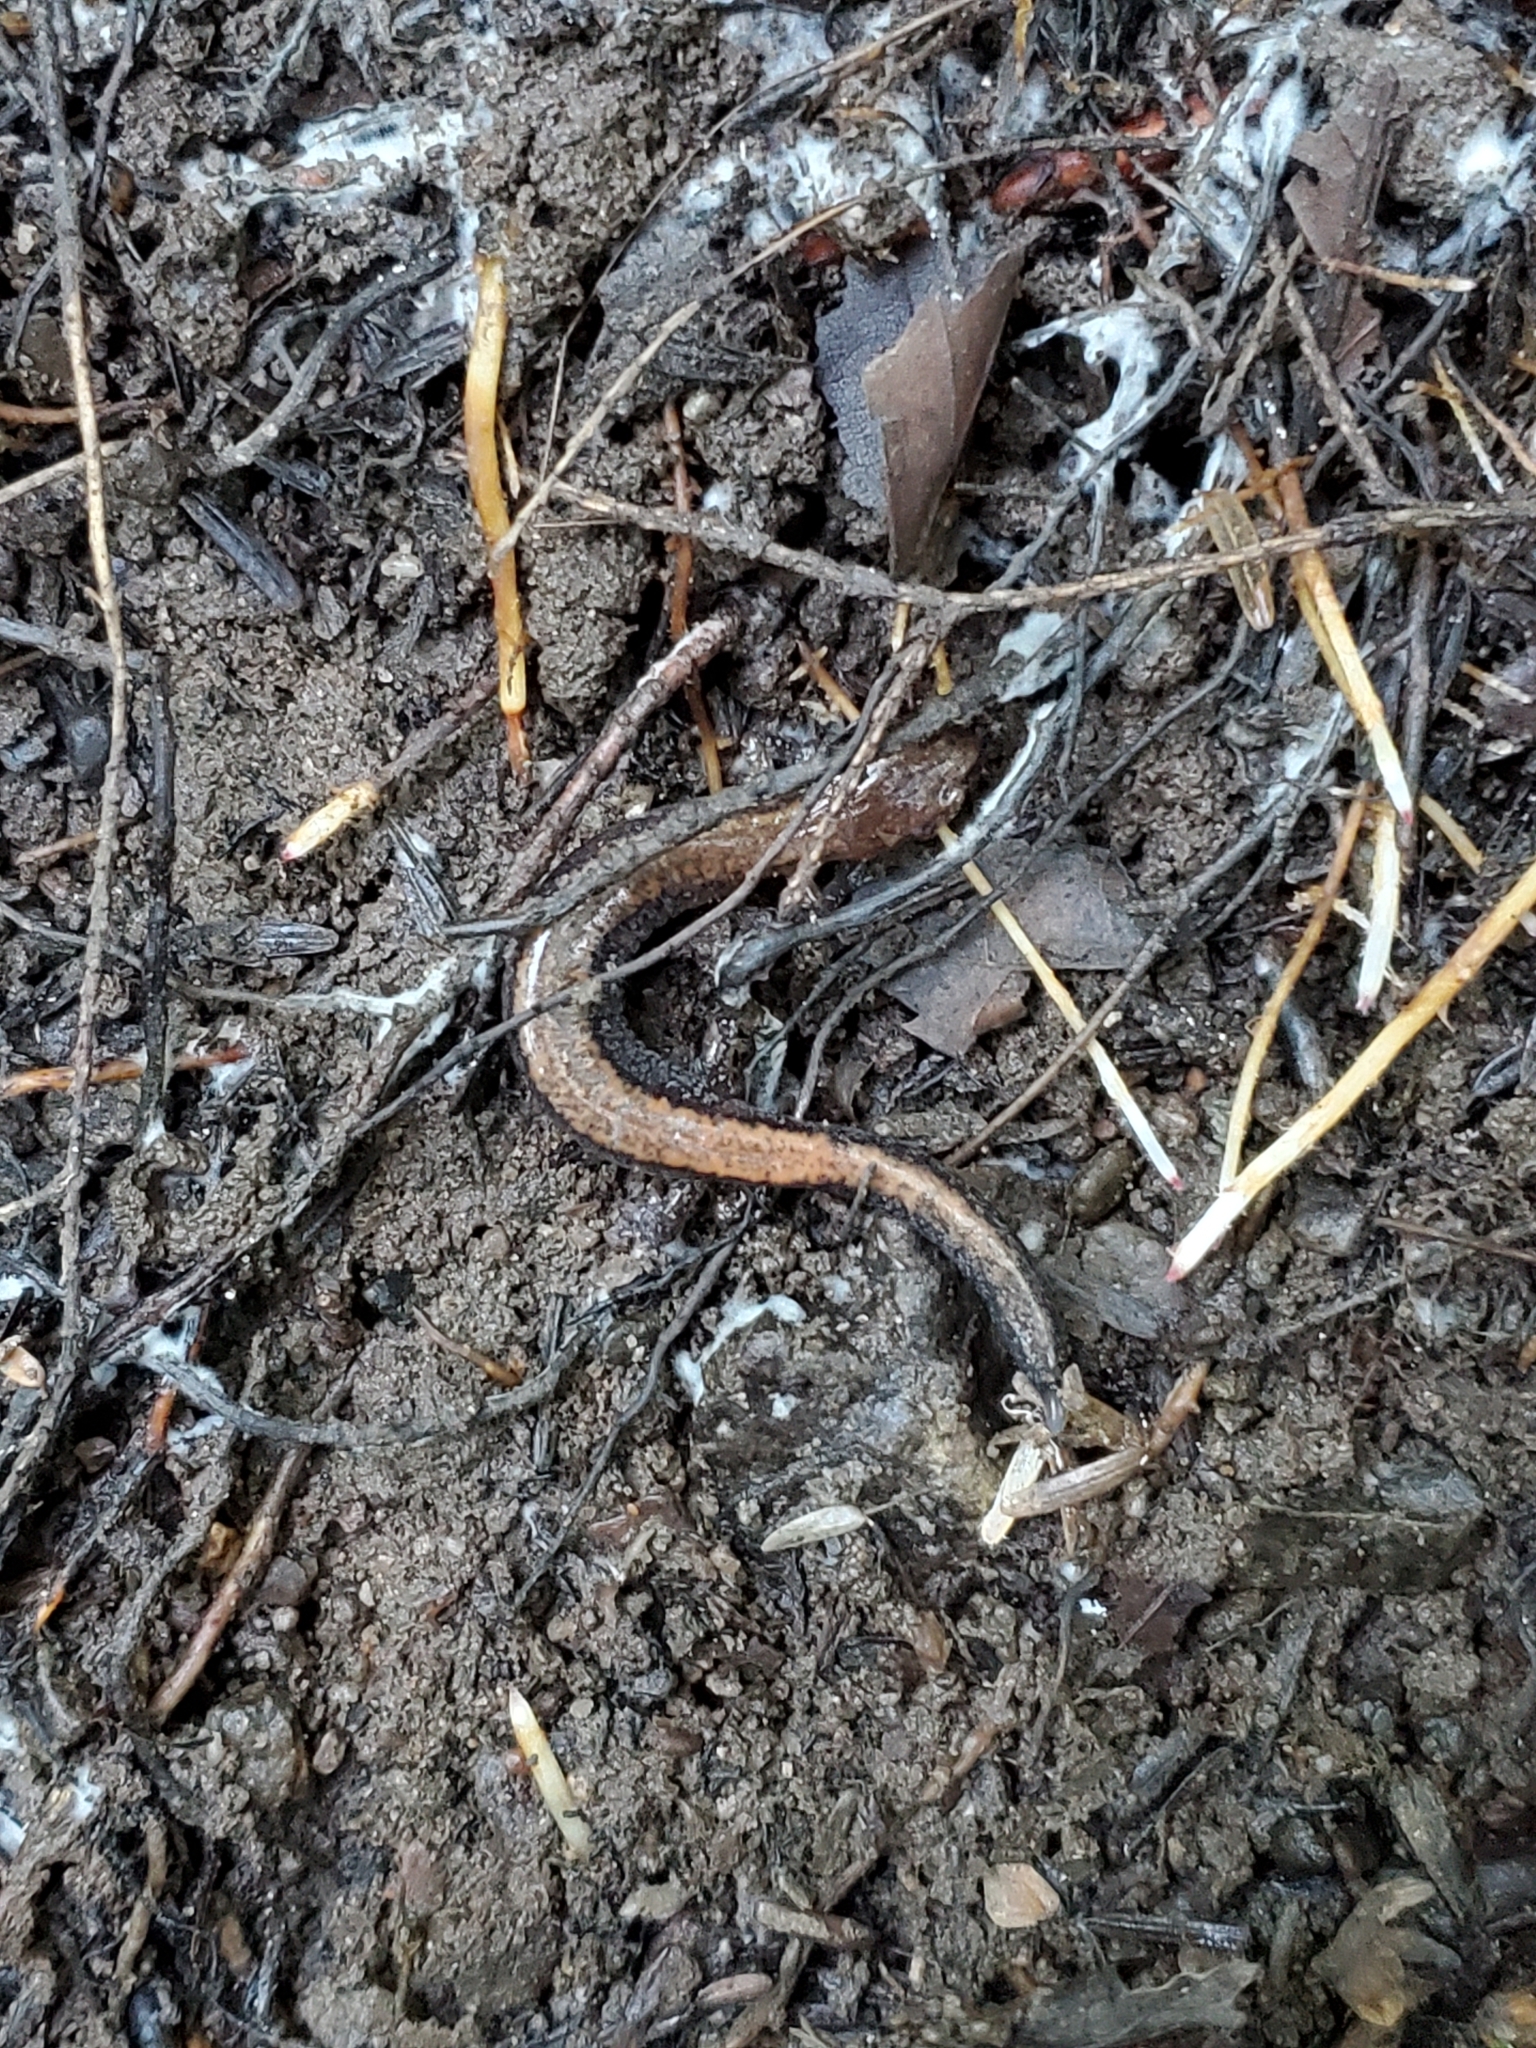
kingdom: Animalia
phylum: Chordata
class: Amphibia
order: Caudata
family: Plethodontidae
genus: Plethodon
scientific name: Plethodon cinereus
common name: Redback salamander
